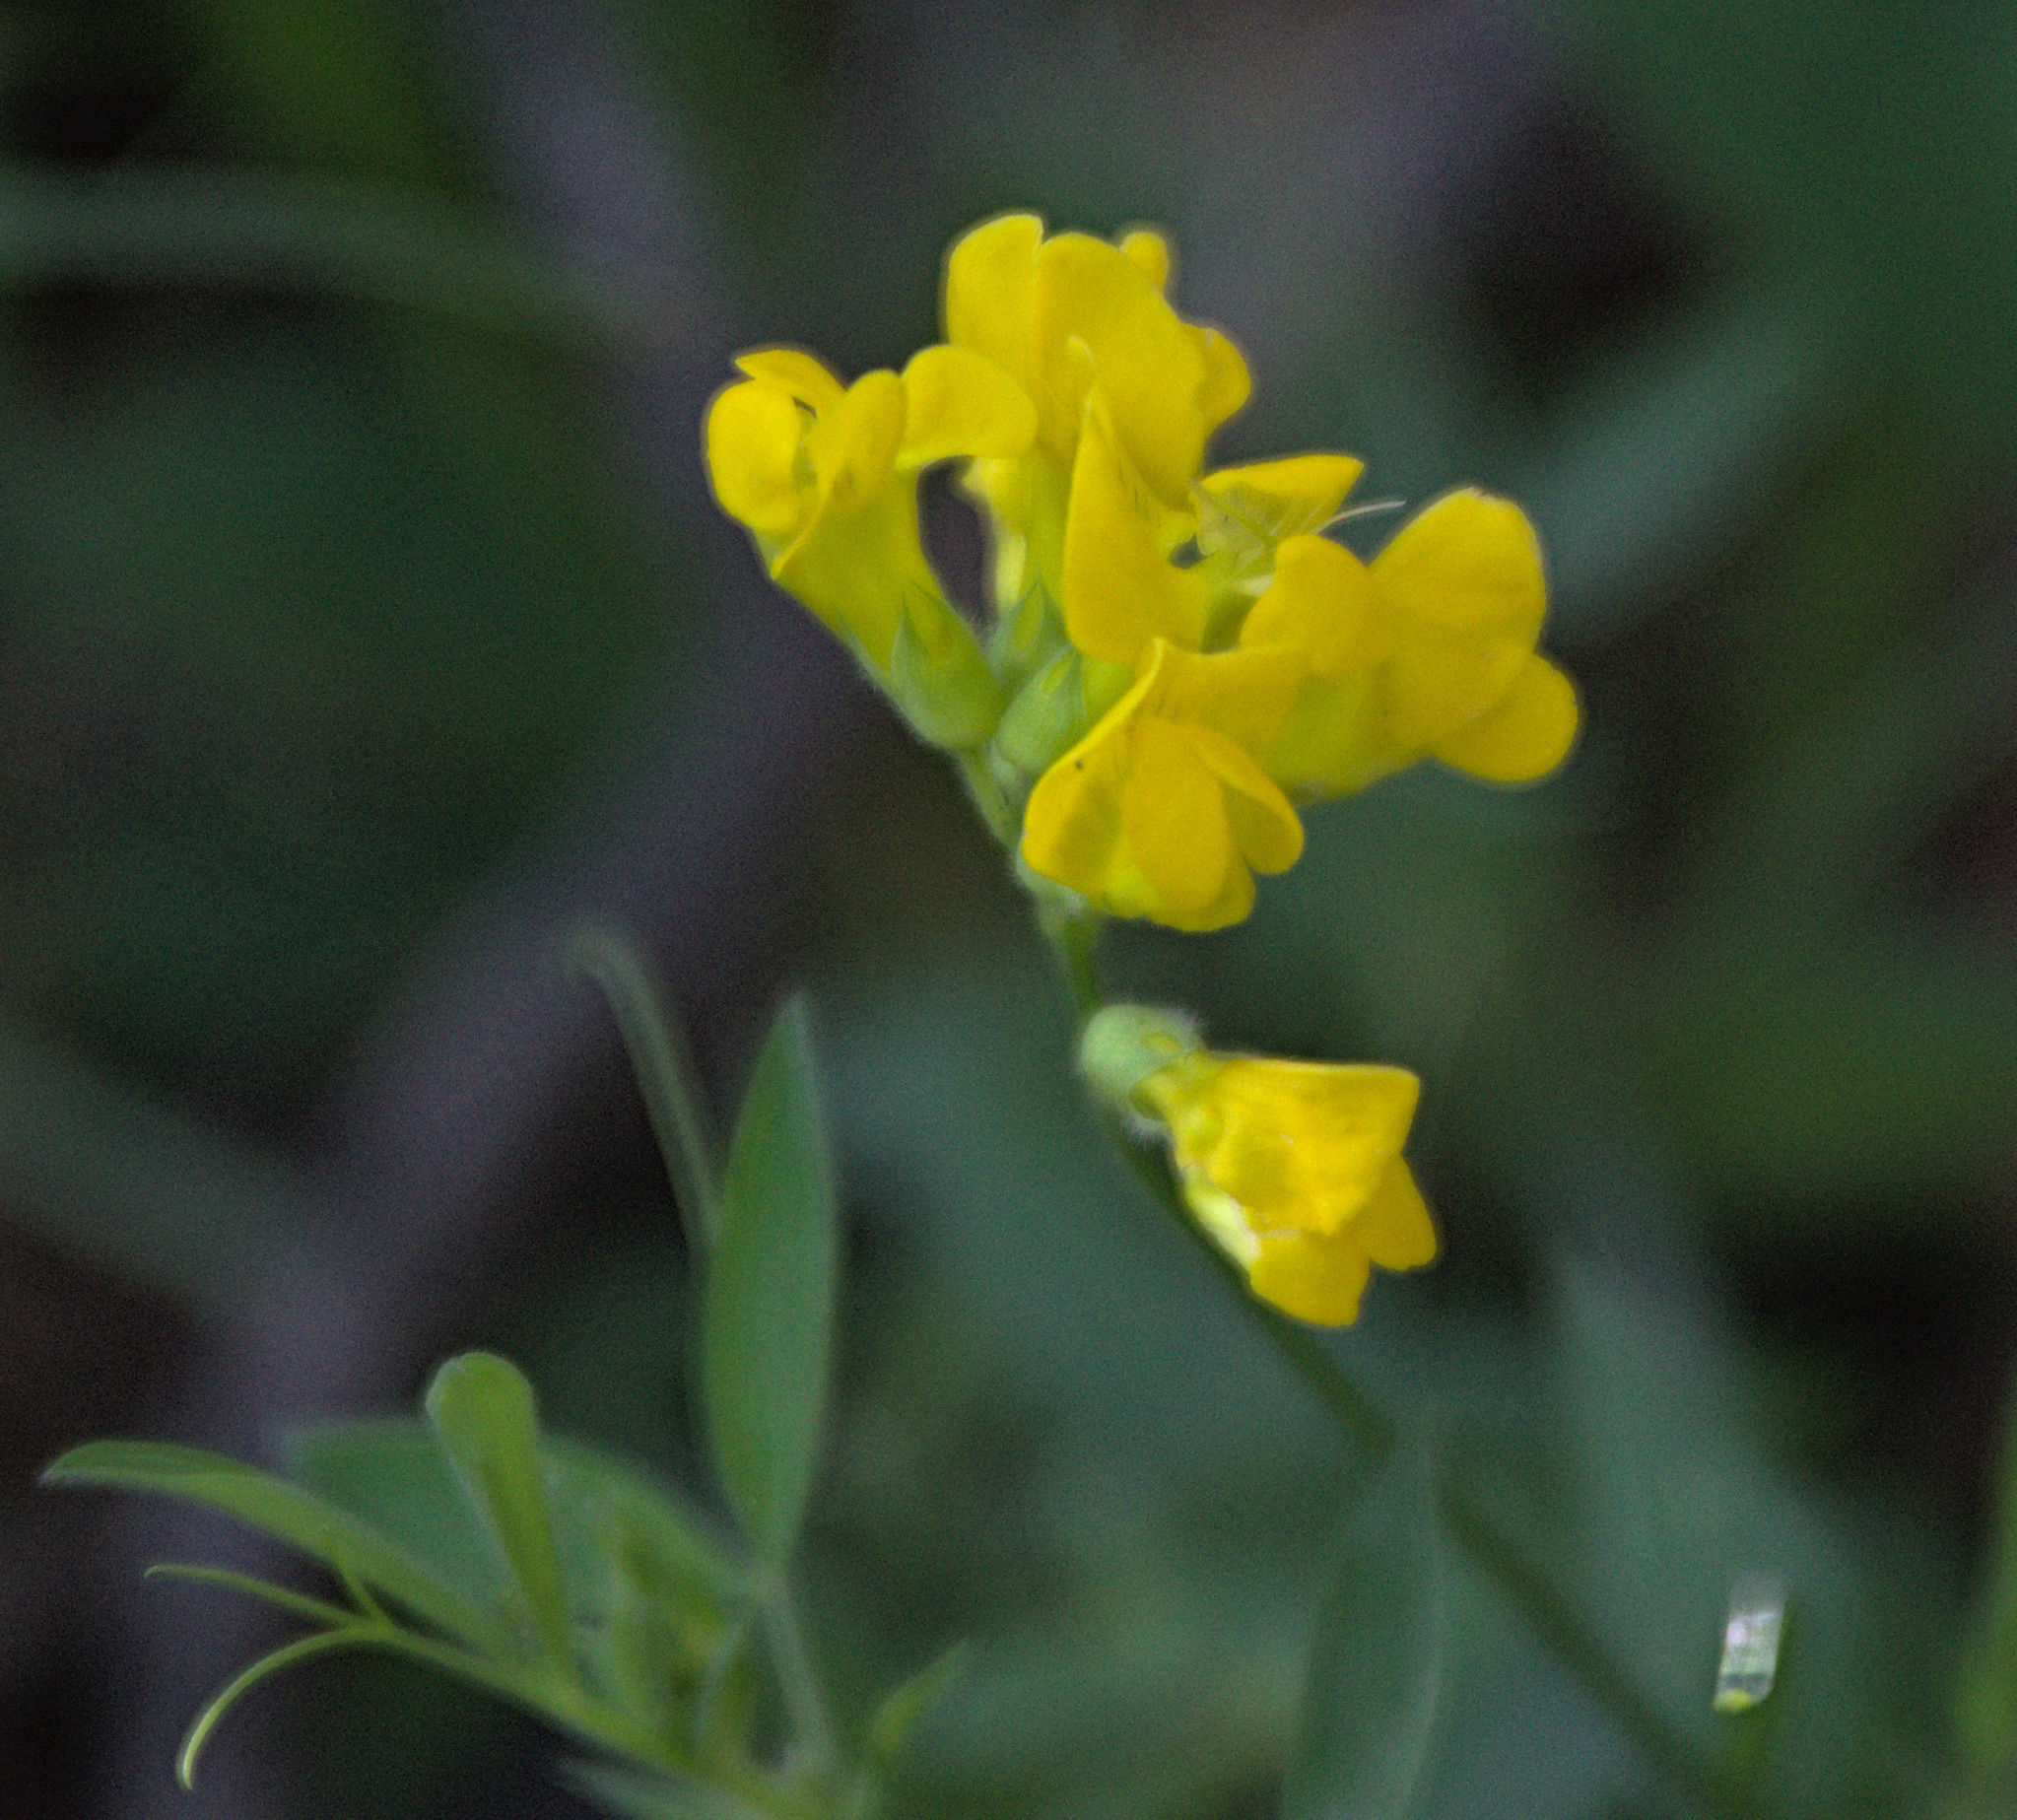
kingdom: Plantae
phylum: Tracheophyta
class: Magnoliopsida
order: Fabales
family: Fabaceae
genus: Lathyrus
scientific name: Lathyrus pratensis
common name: Meadow vetchling
